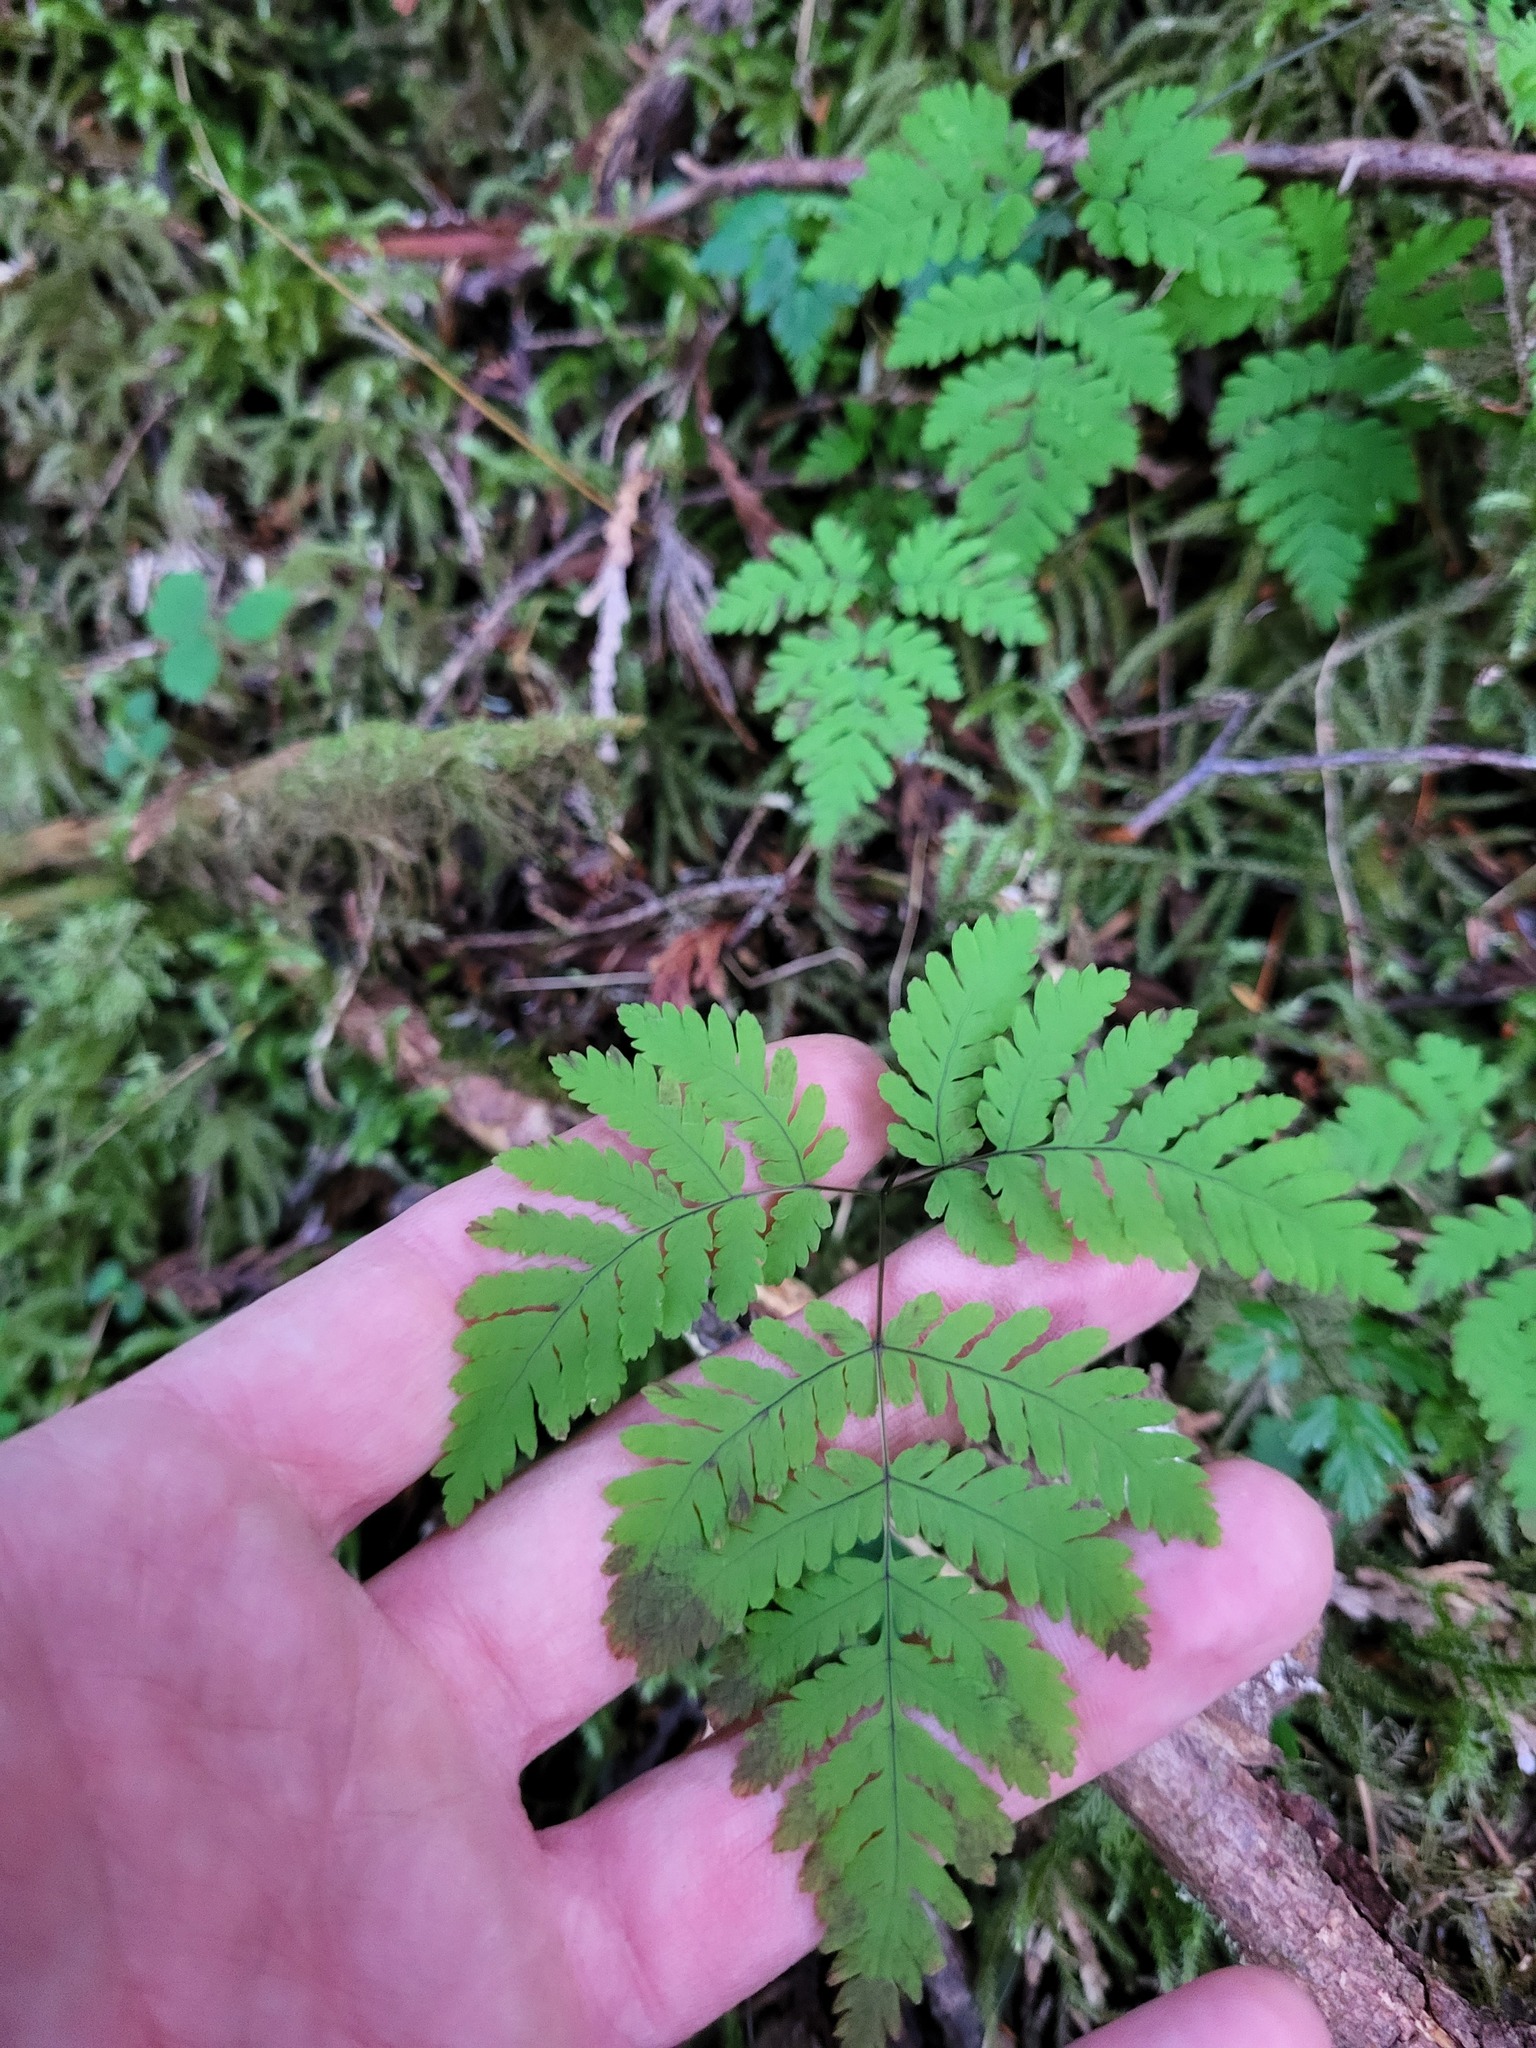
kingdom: Plantae
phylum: Tracheophyta
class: Polypodiopsida
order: Polypodiales
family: Cystopteridaceae
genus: Gymnocarpium
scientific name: Gymnocarpium dryopteris
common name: Oak fern
